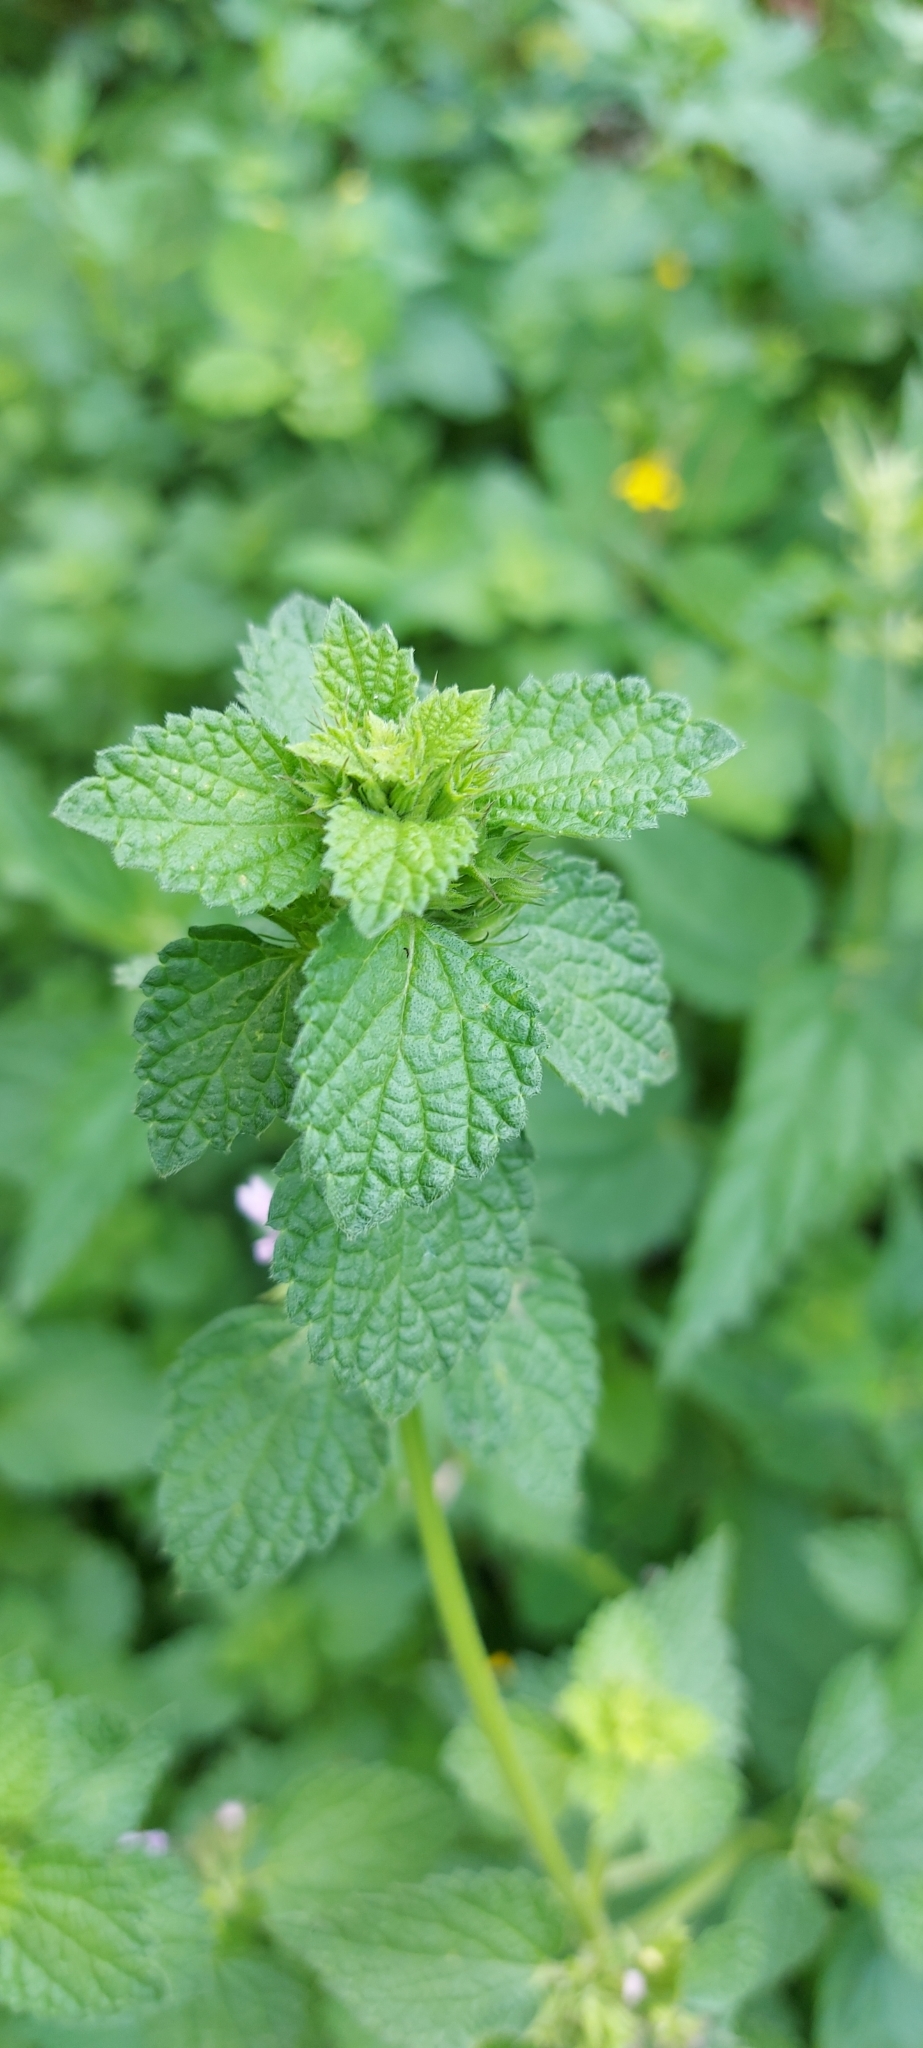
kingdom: Plantae
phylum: Tracheophyta
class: Magnoliopsida
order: Lamiales
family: Lamiaceae
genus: Ballota
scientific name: Ballota nigra
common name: Black horehound
